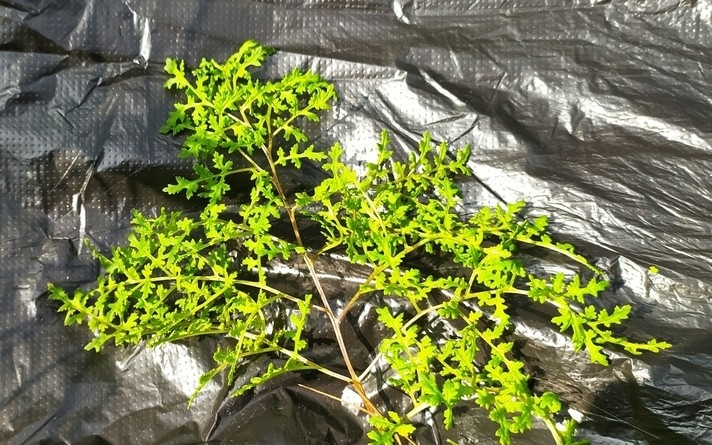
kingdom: Plantae
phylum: Tracheophyta
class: Magnoliopsida
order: Lamiales
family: Orobanchaceae
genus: Pedicularis
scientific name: Pedicularis palustris
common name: Marsh lousewort
